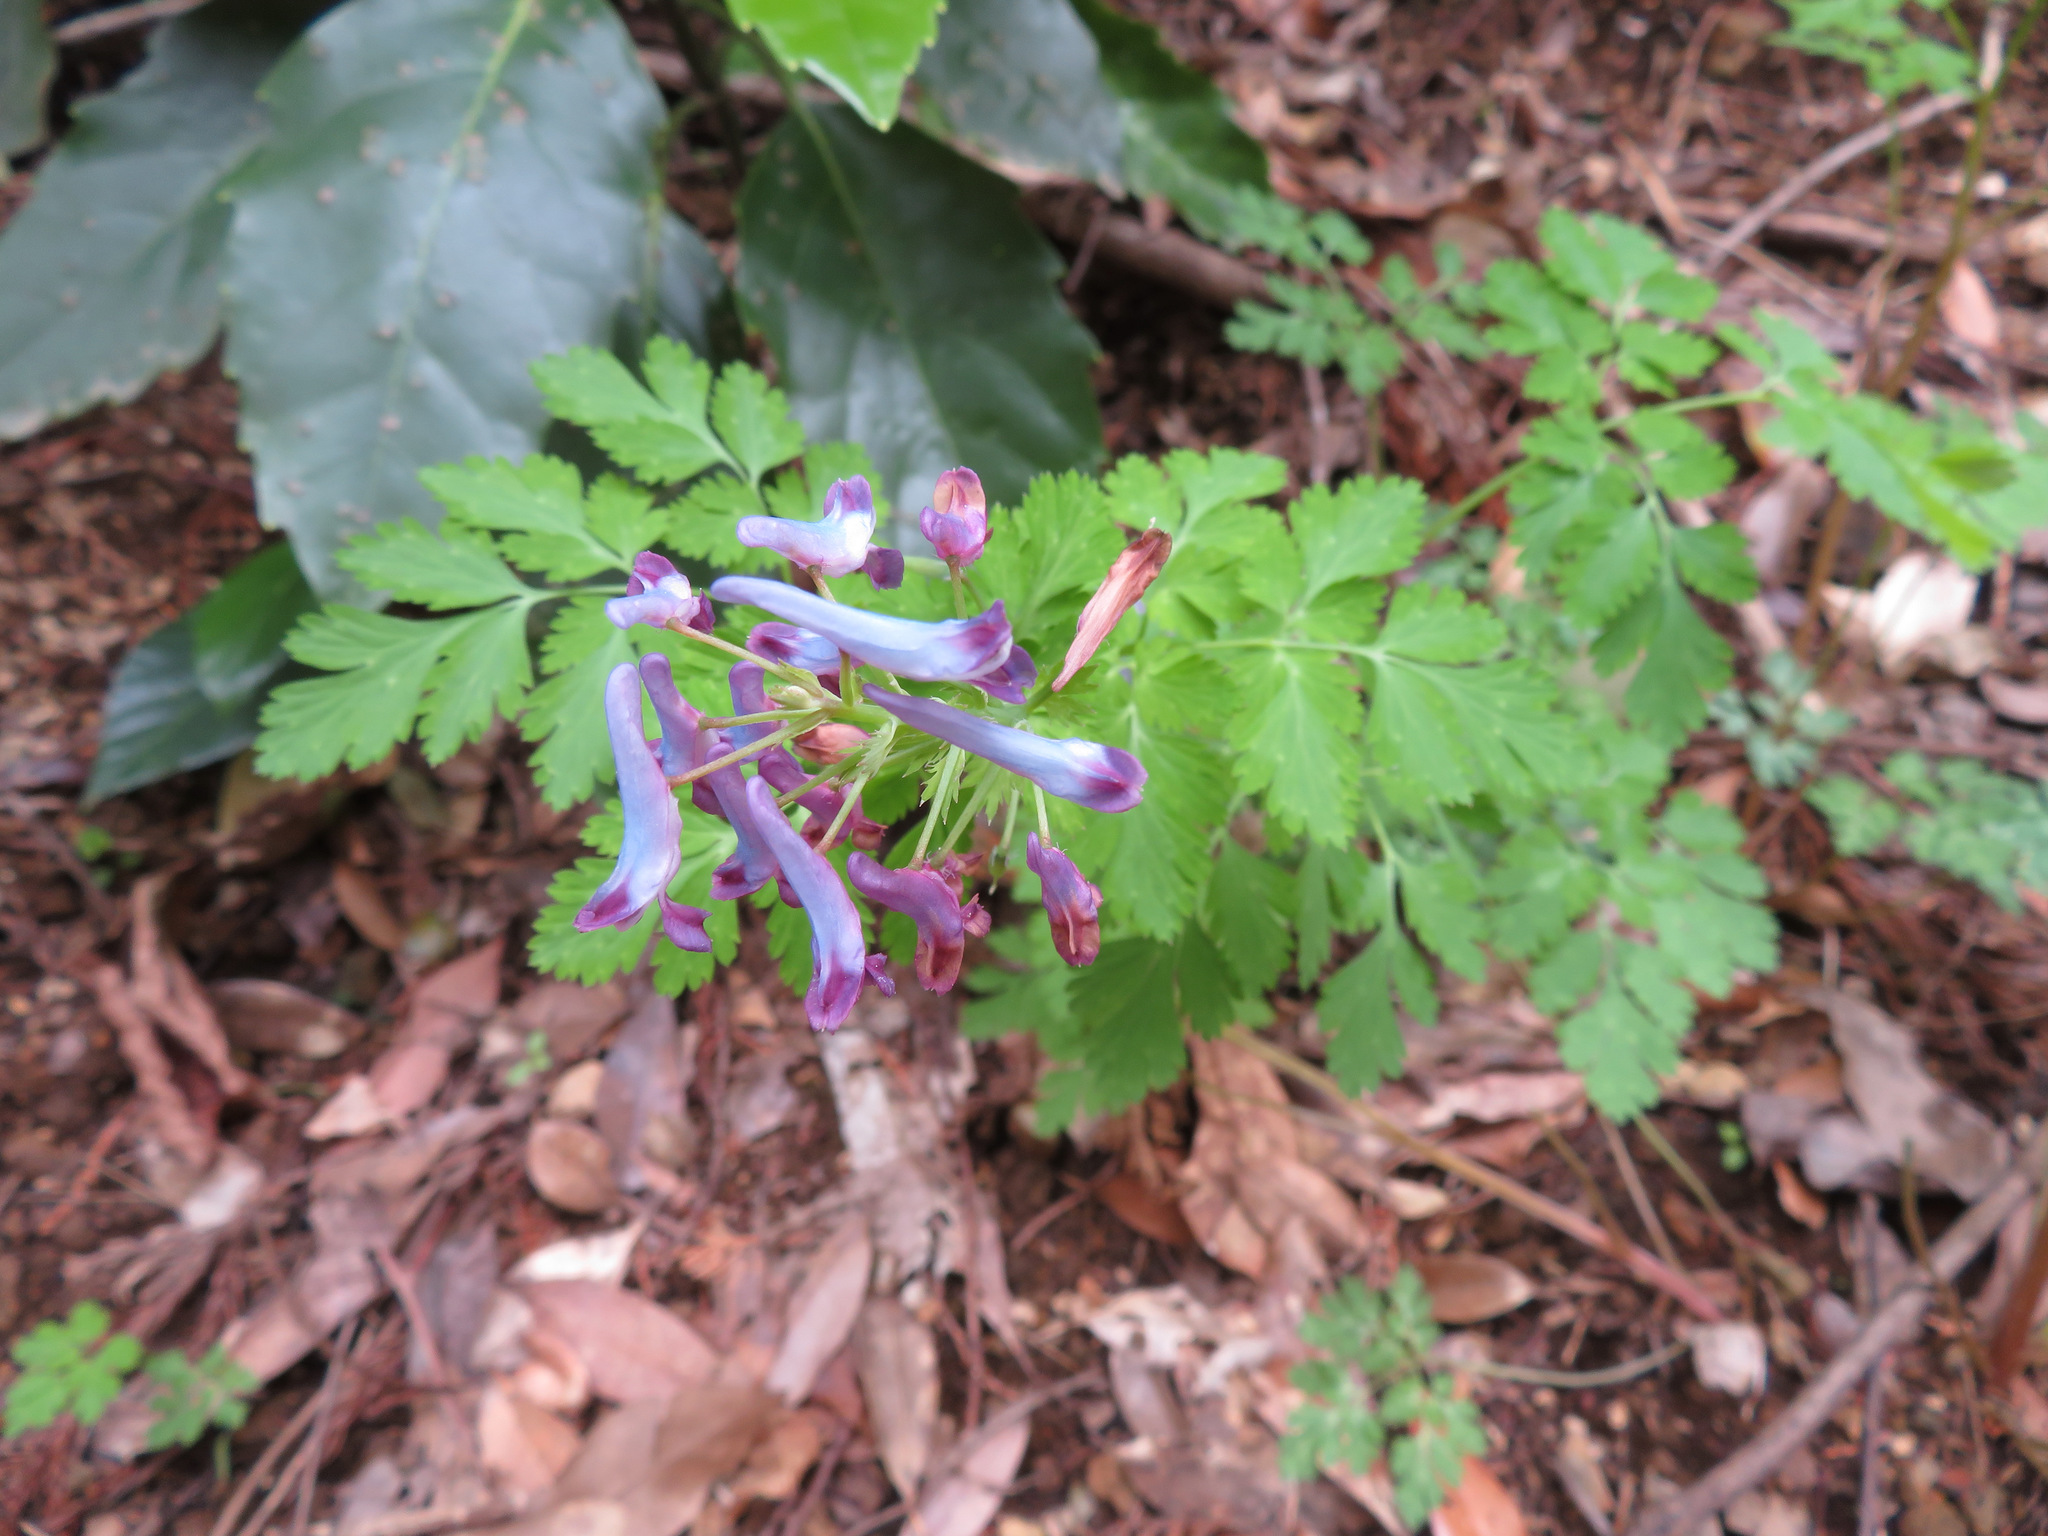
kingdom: Plantae
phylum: Tracheophyta
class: Magnoliopsida
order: Ranunculales
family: Papaveraceae
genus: Corydalis
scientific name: Corydalis incisa
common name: Incised fumewort
